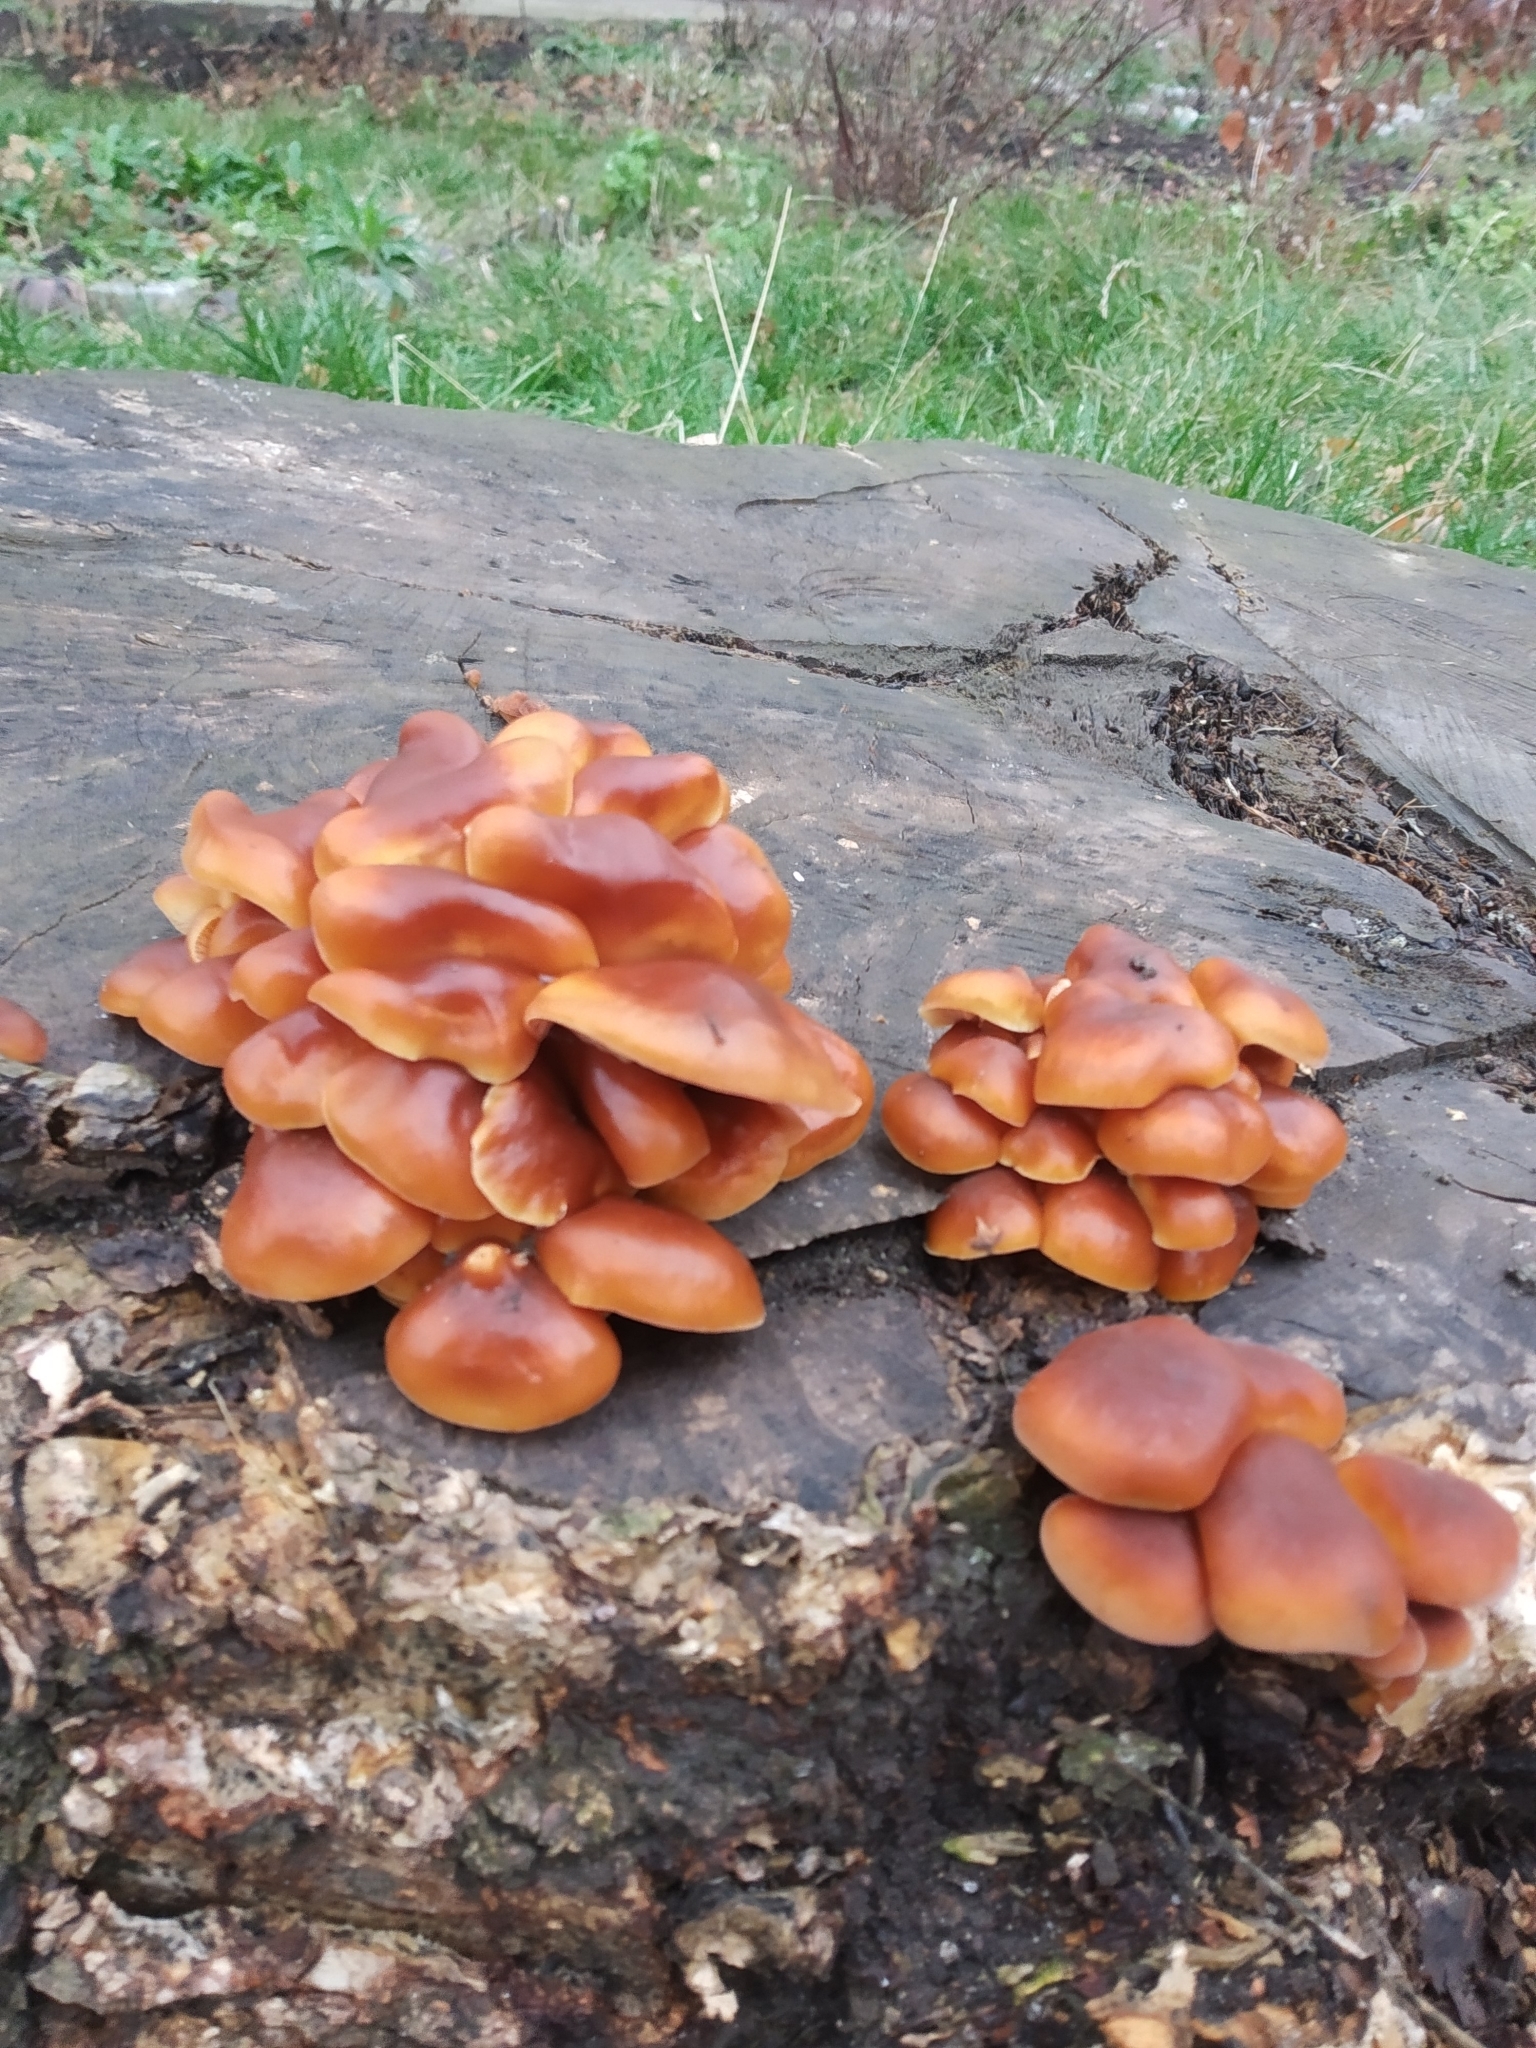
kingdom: Fungi
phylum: Basidiomycota
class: Agaricomycetes
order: Agaricales
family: Physalacriaceae
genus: Flammulina
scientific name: Flammulina
